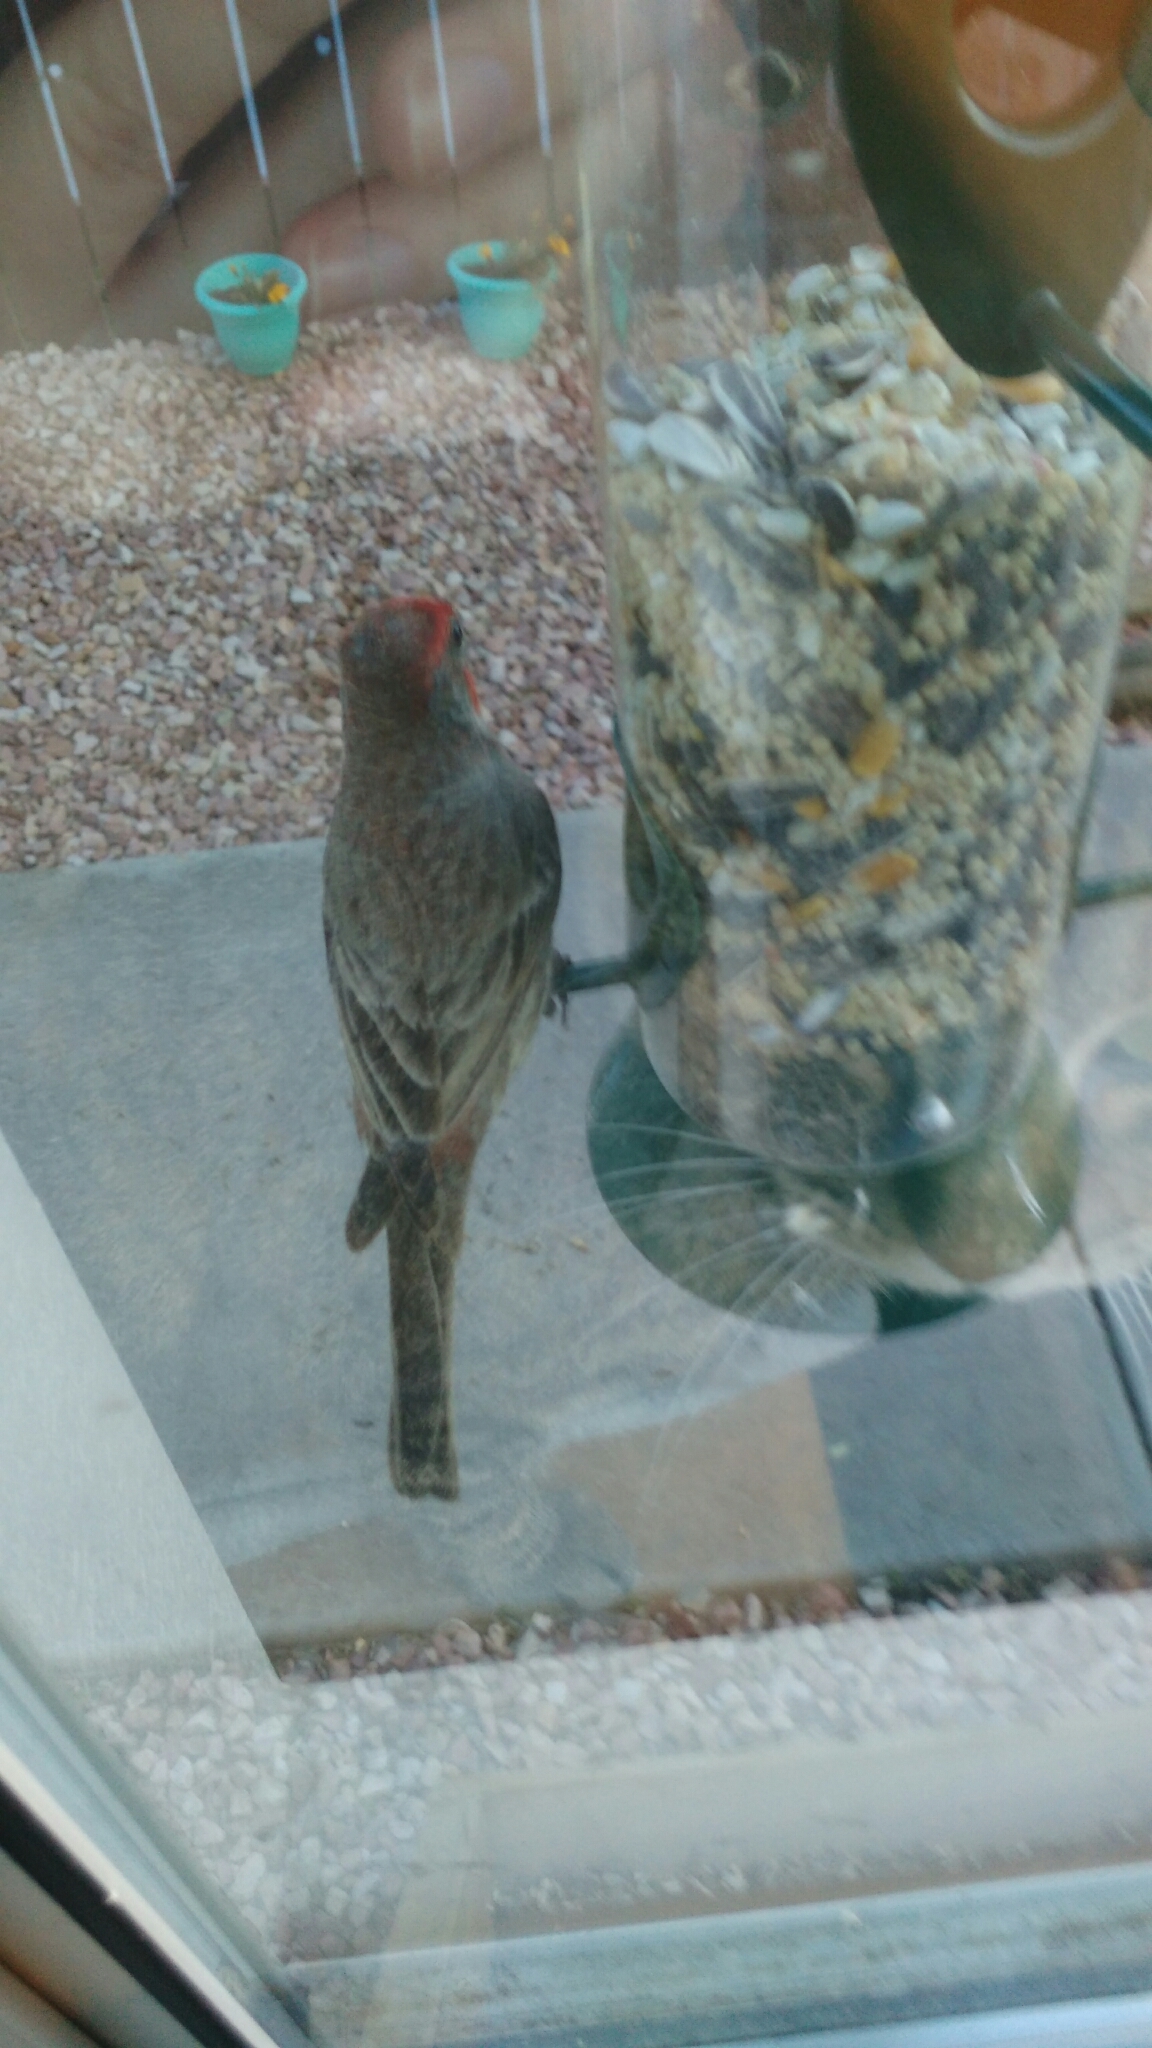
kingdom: Animalia
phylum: Chordata
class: Aves
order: Passeriformes
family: Fringillidae
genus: Haemorhous
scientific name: Haemorhous mexicanus
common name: House finch
